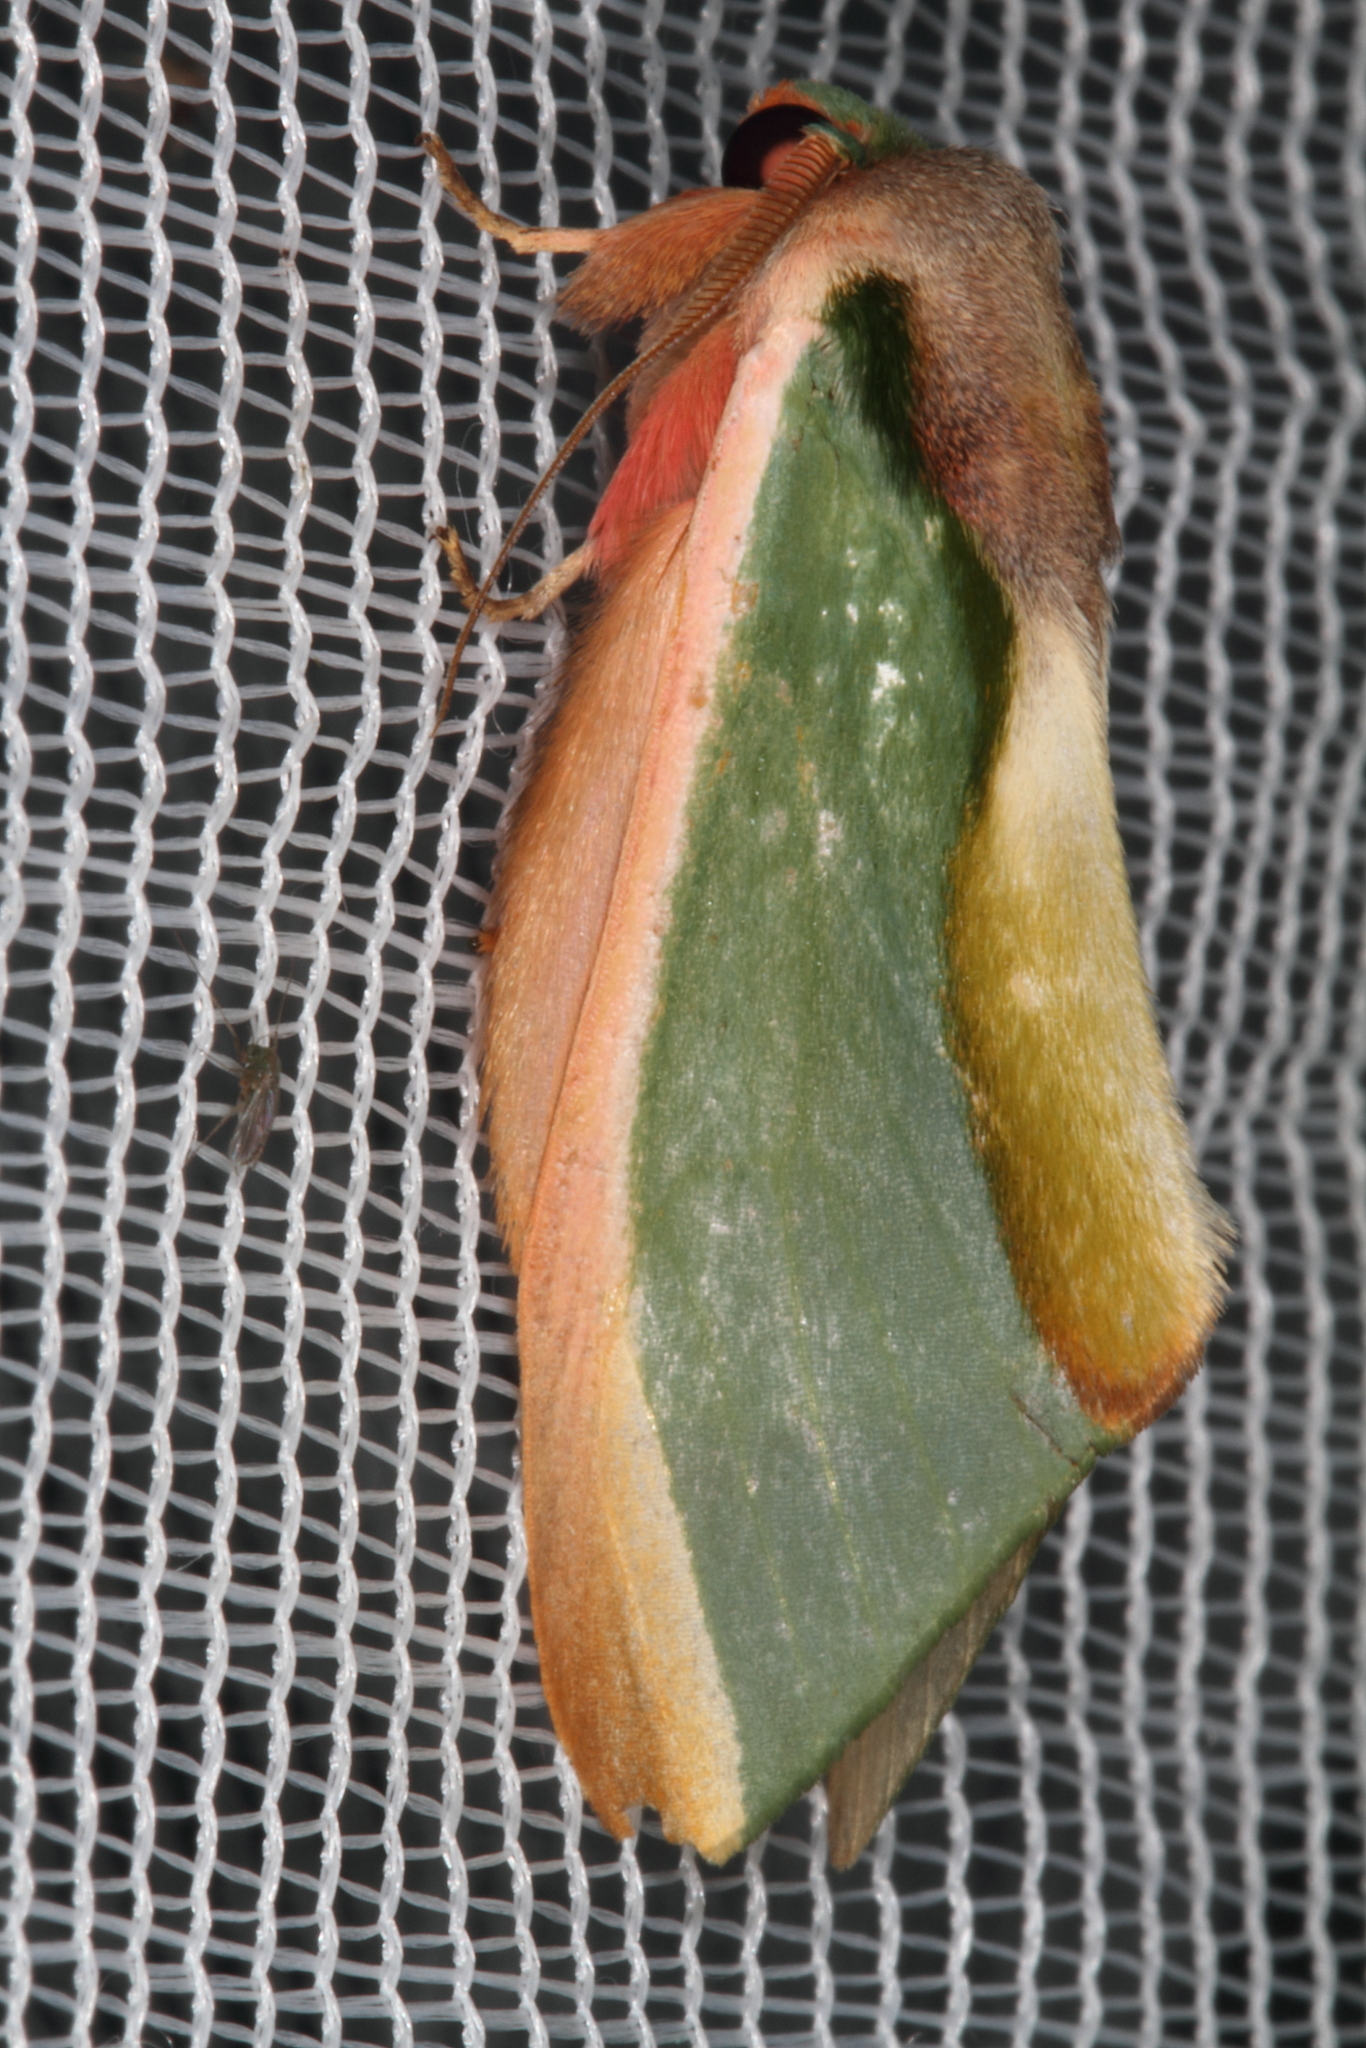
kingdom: Animalia
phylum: Arthropoda
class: Insecta
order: Lepidoptera
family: Notodontidae
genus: Rosema
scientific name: Rosema apollinairei
